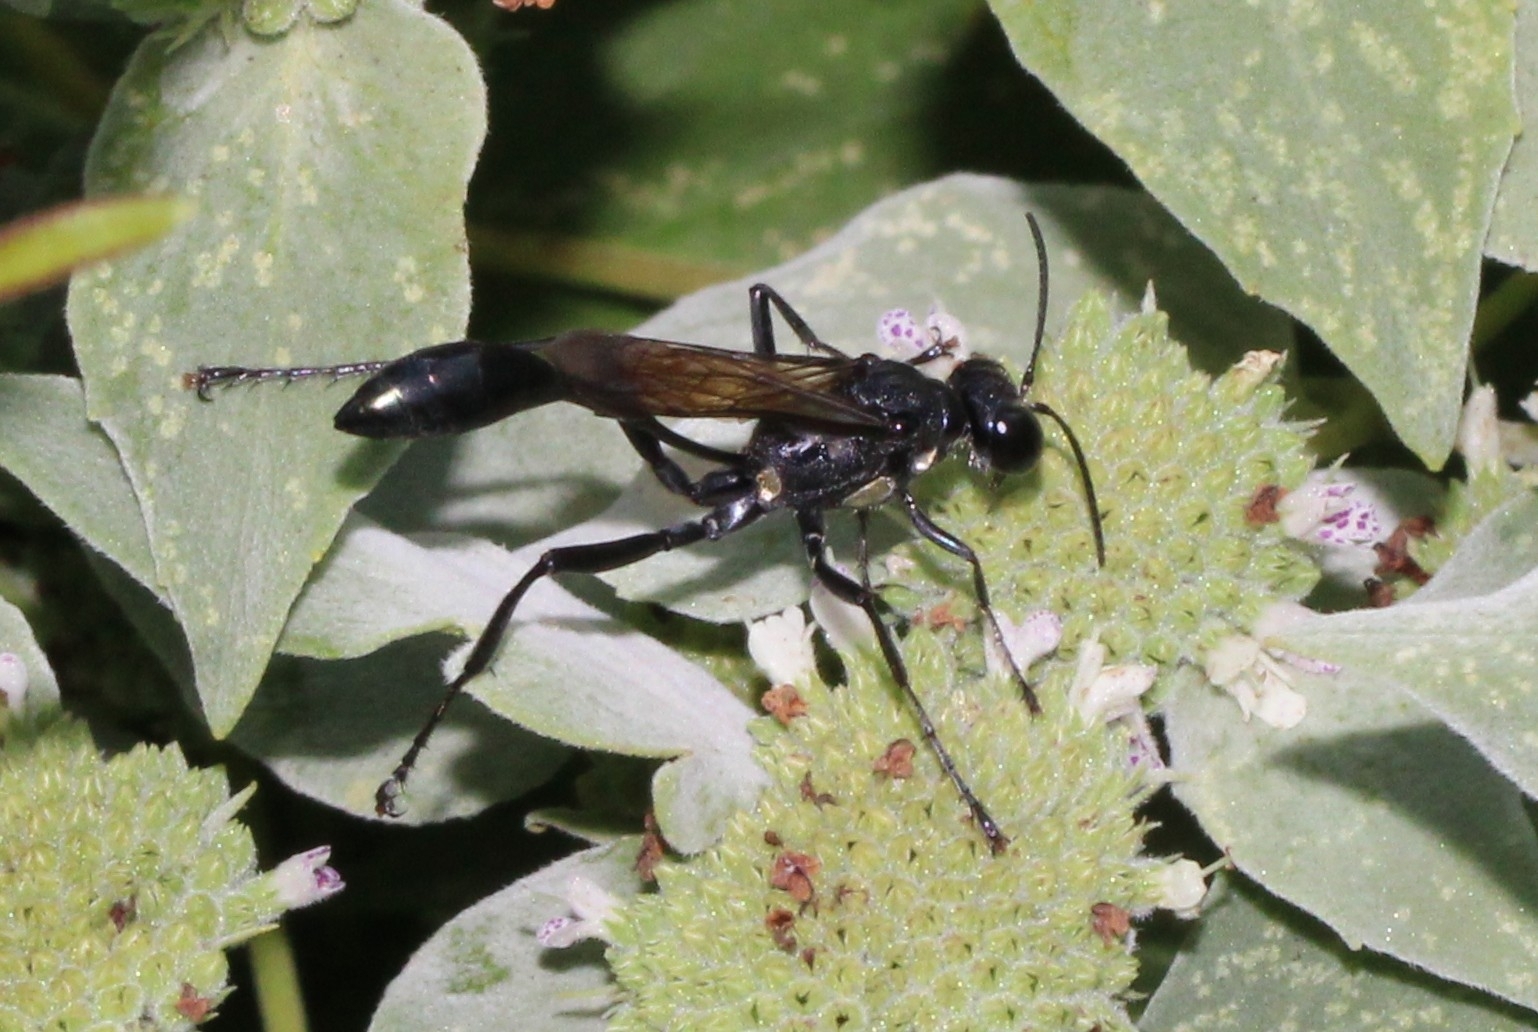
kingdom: Animalia
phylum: Arthropoda
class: Insecta
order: Hymenoptera
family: Sphecidae
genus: Eremnophila
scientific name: Eremnophila aureonotata
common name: Gold-marked thread-waisted wasp
